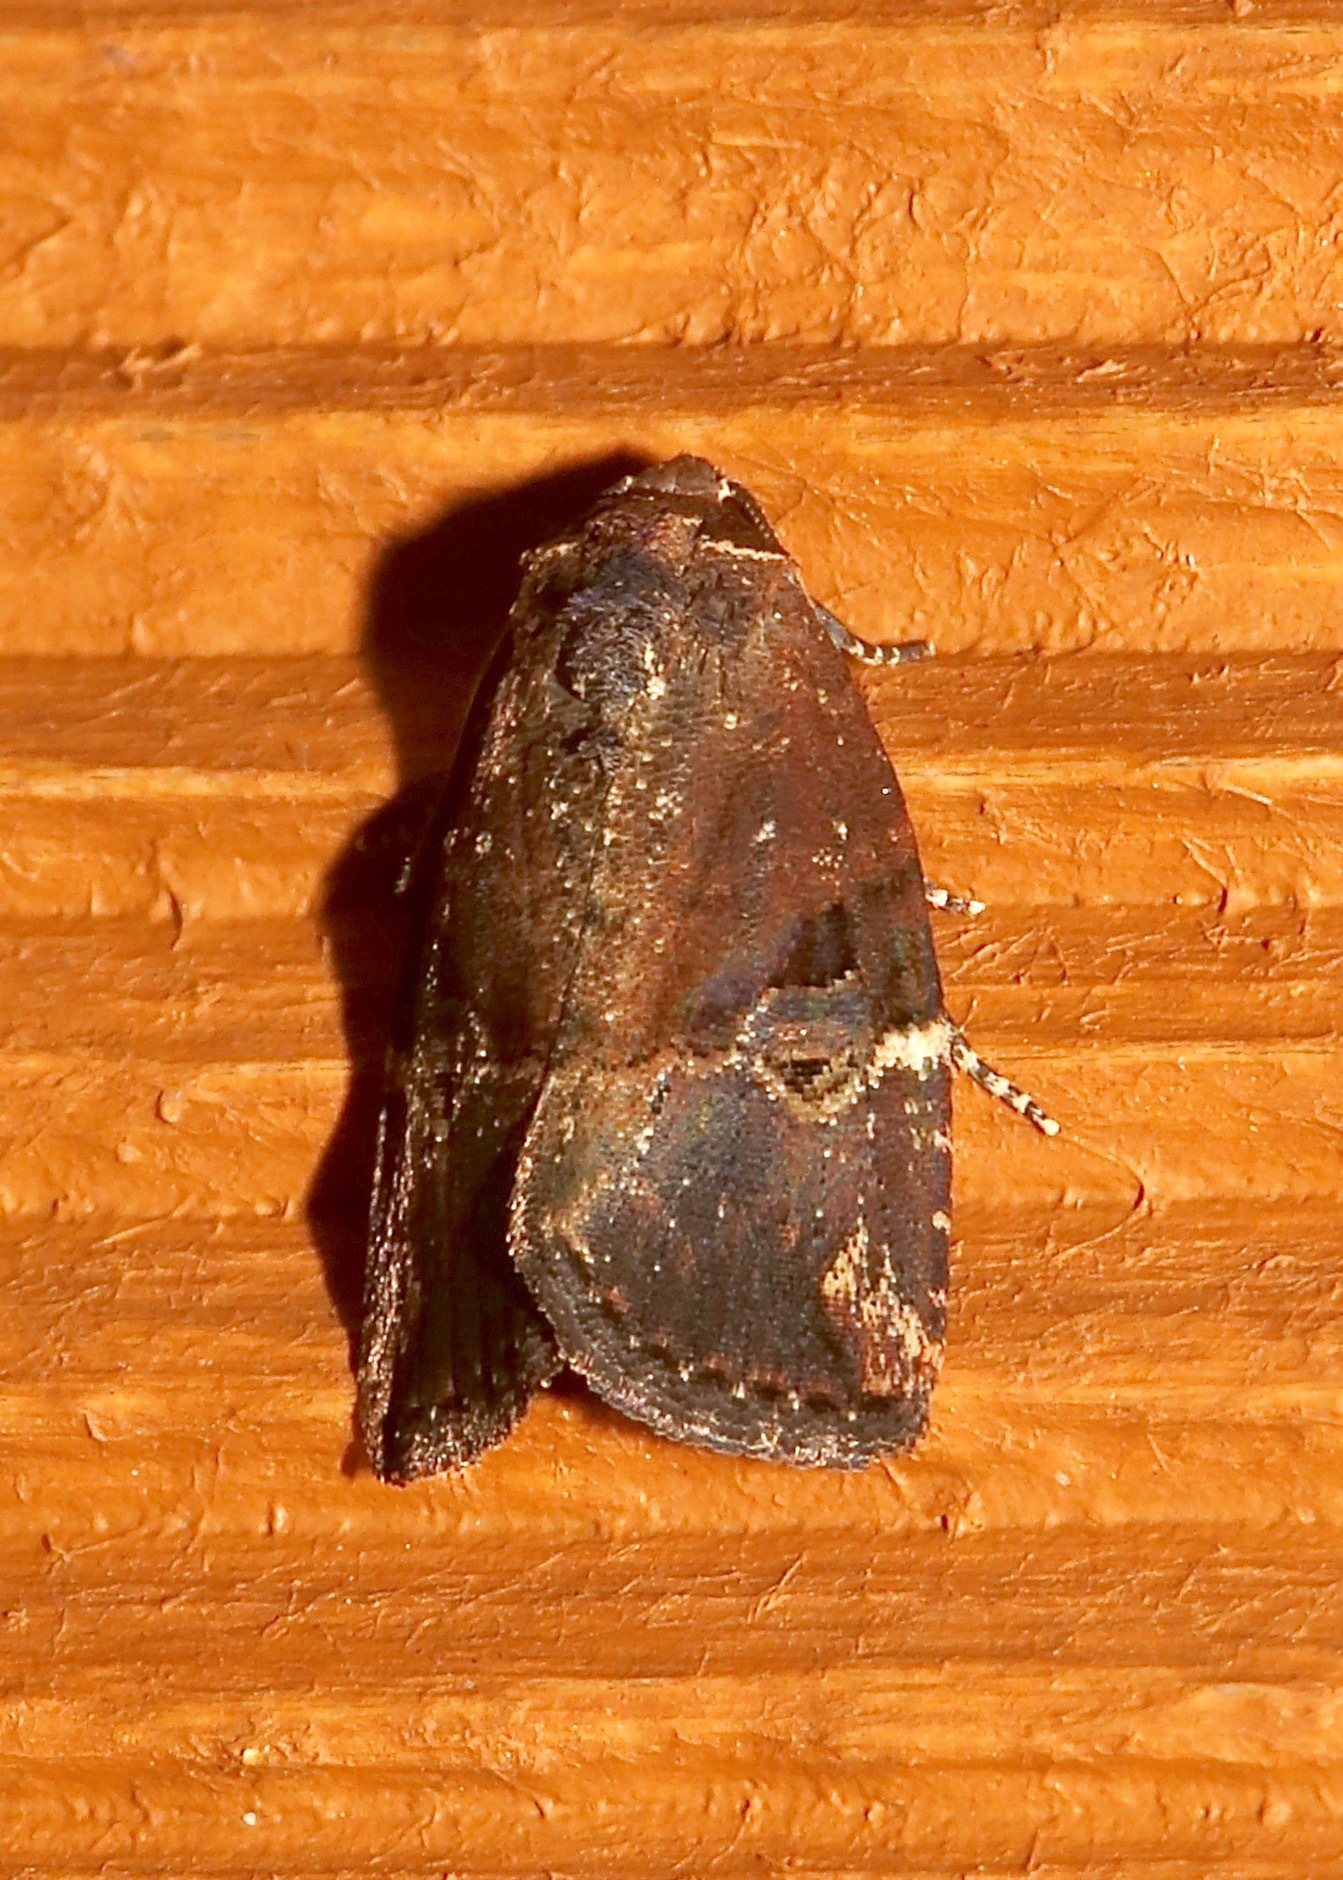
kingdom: Animalia
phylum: Arthropoda
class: Insecta
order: Lepidoptera
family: Noctuidae
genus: Elaphria
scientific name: Elaphria versicolor
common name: Fir harlequin
